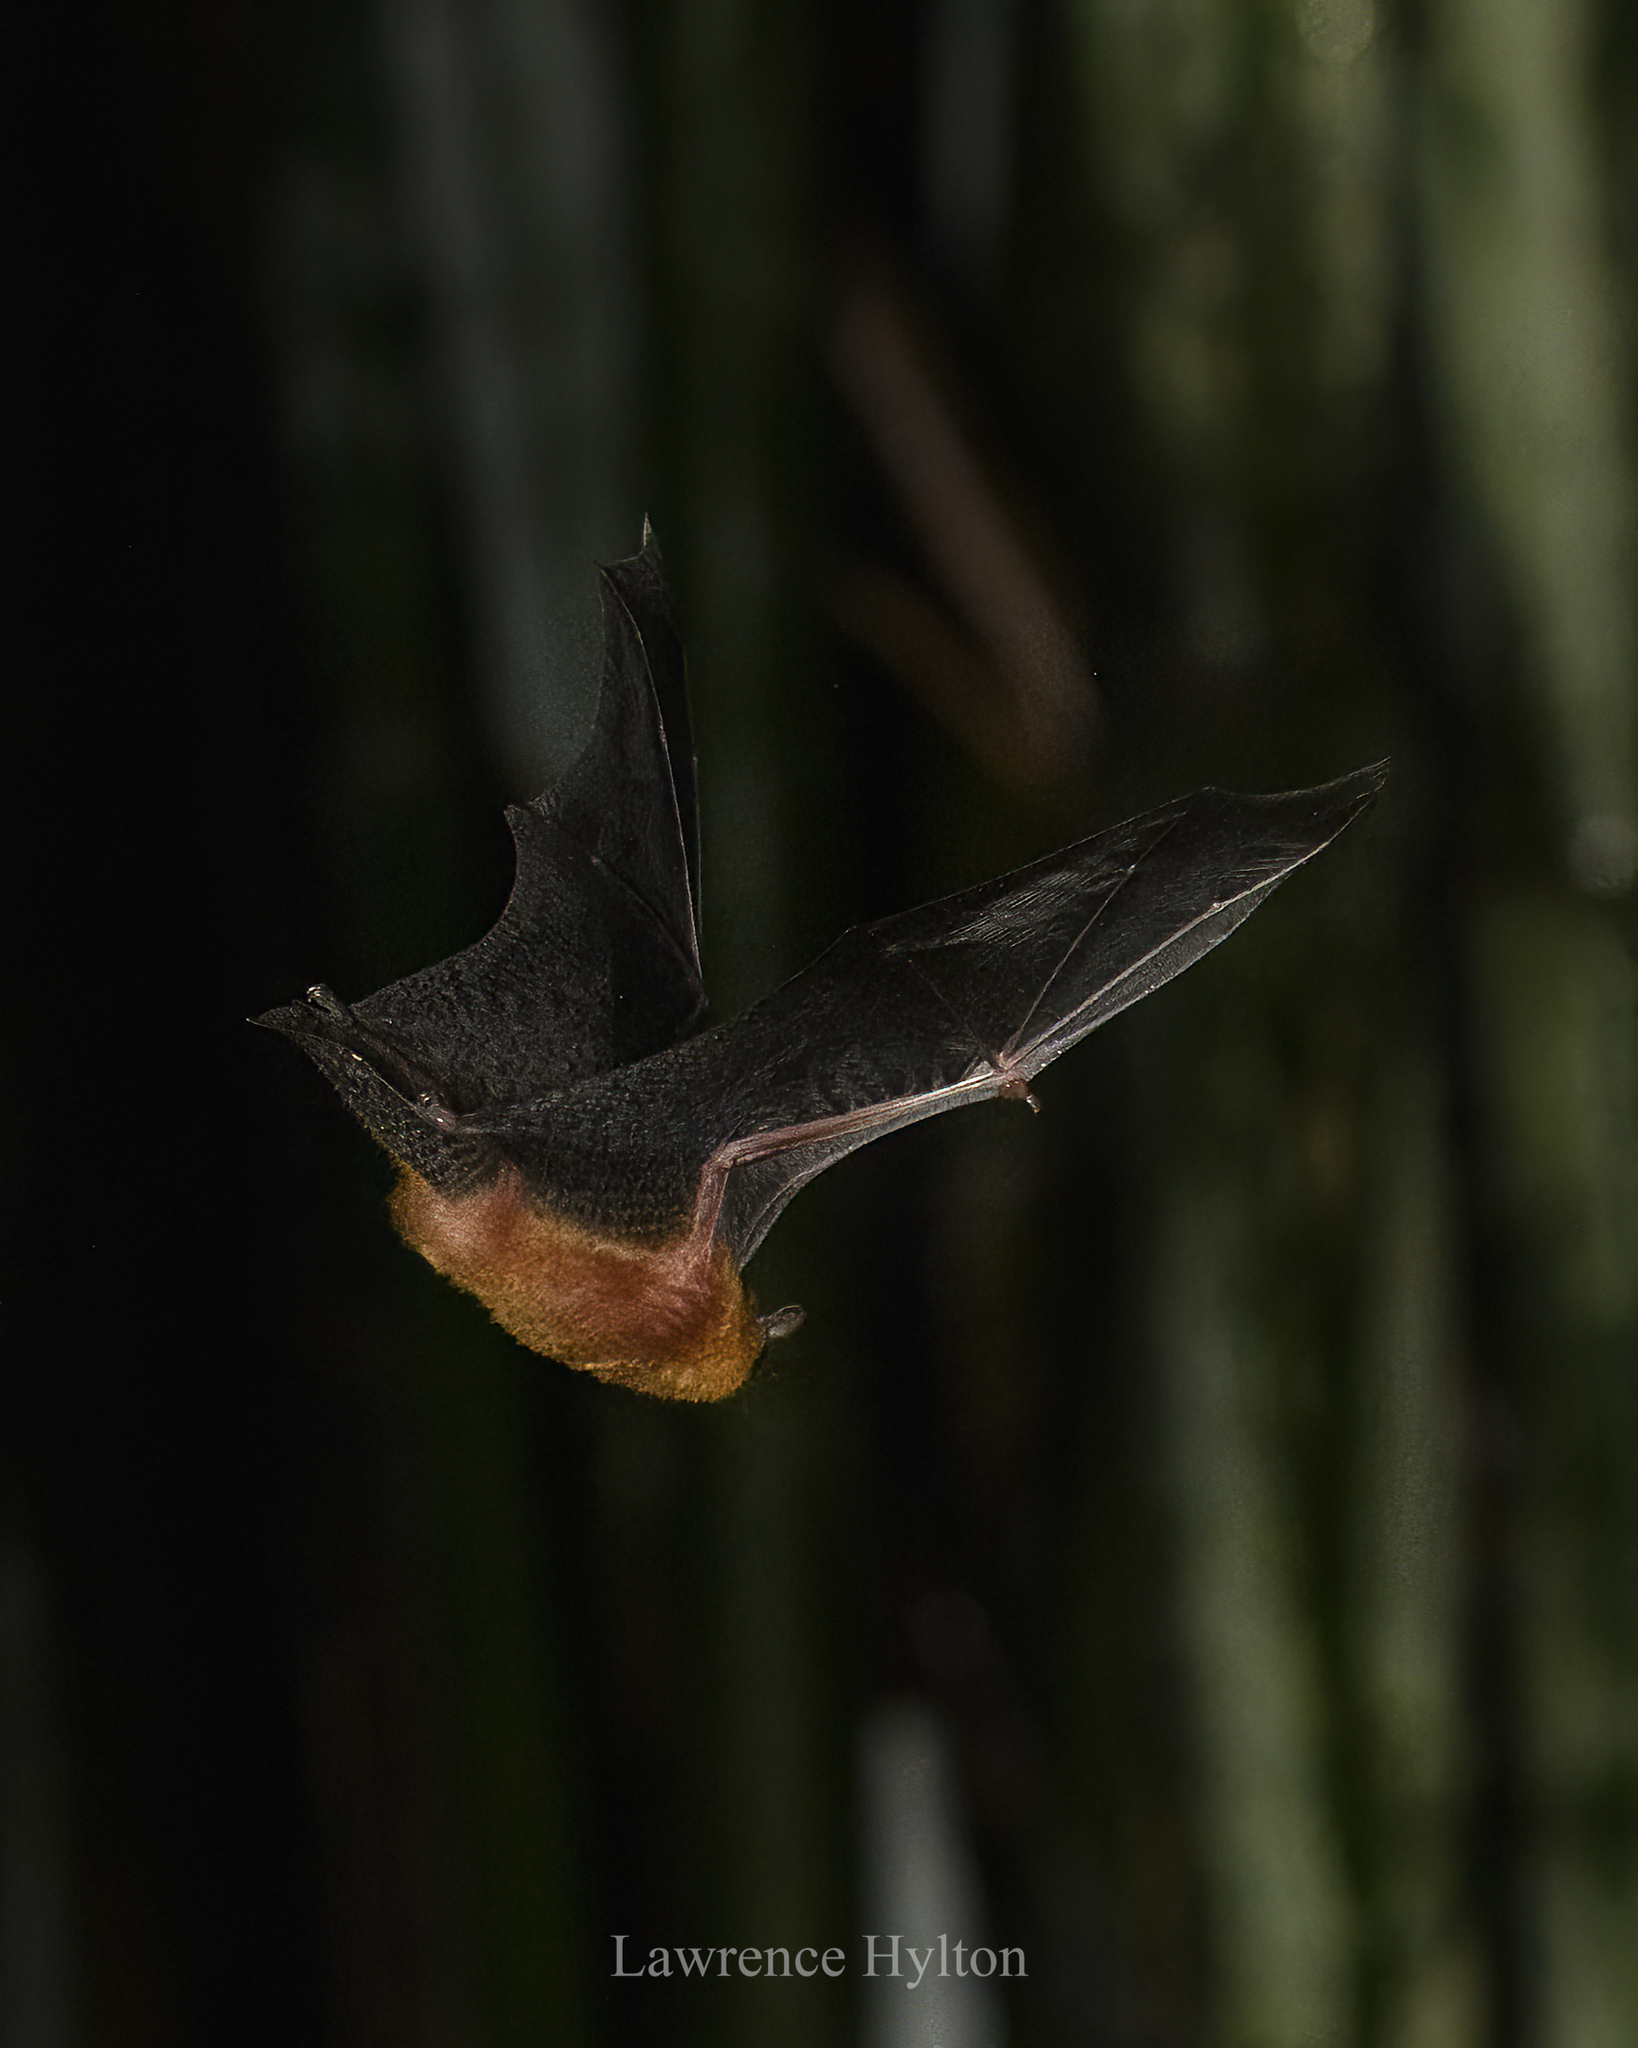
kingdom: Animalia
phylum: Chordata
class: Mammalia
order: Chiroptera
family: Vespertilionidae
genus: Tylonycteris
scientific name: Tylonycteris fulvida
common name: Amber bamboo bat
